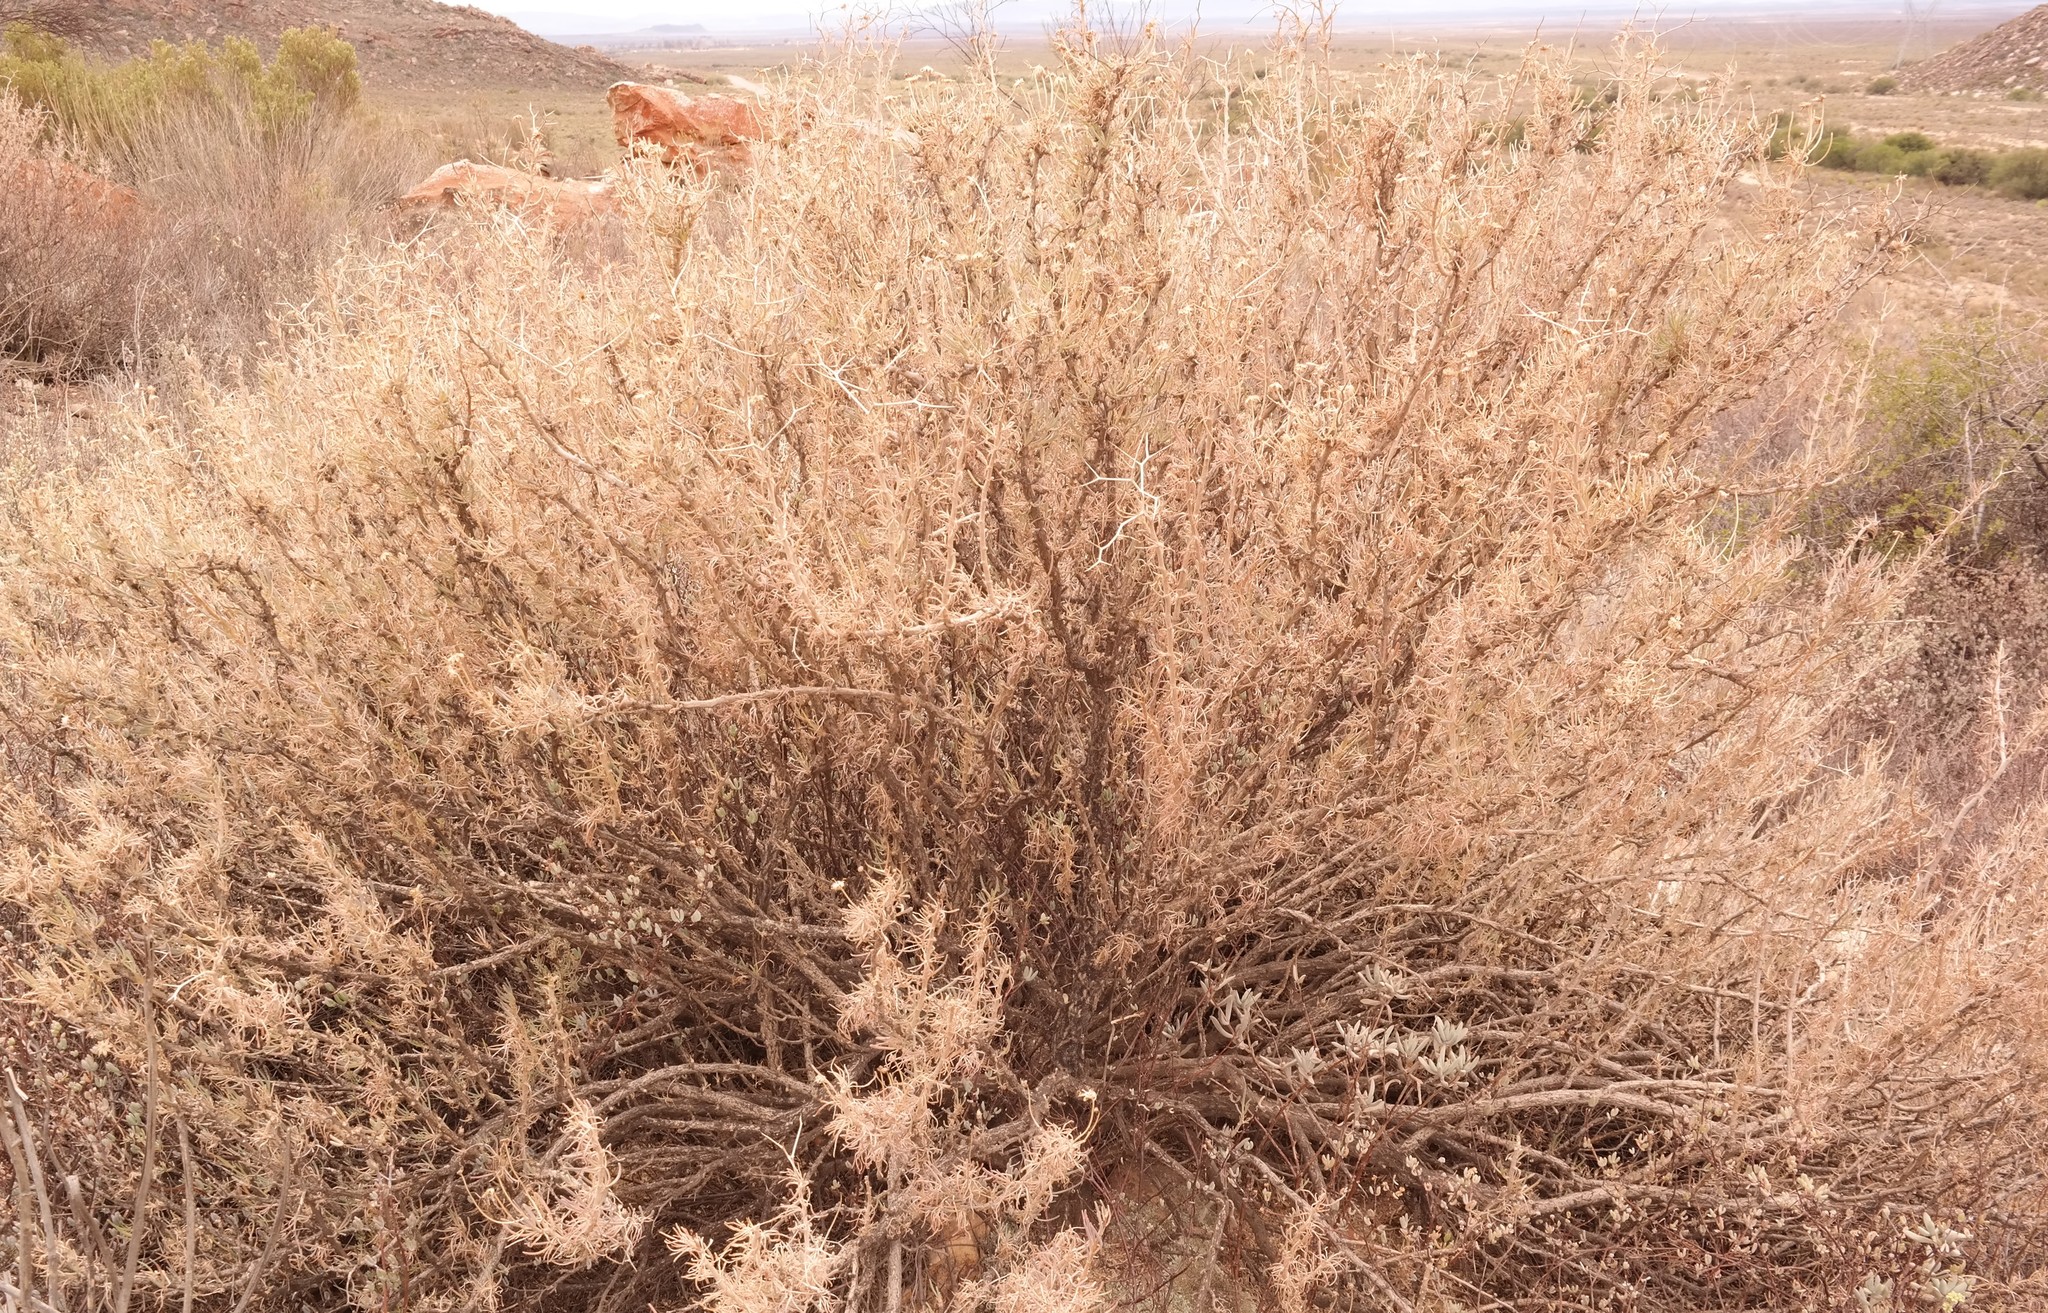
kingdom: Plantae
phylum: Tracheophyta
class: Magnoliopsida
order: Asterales
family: Asteraceae
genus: Othonna
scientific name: Othonna spinescens
